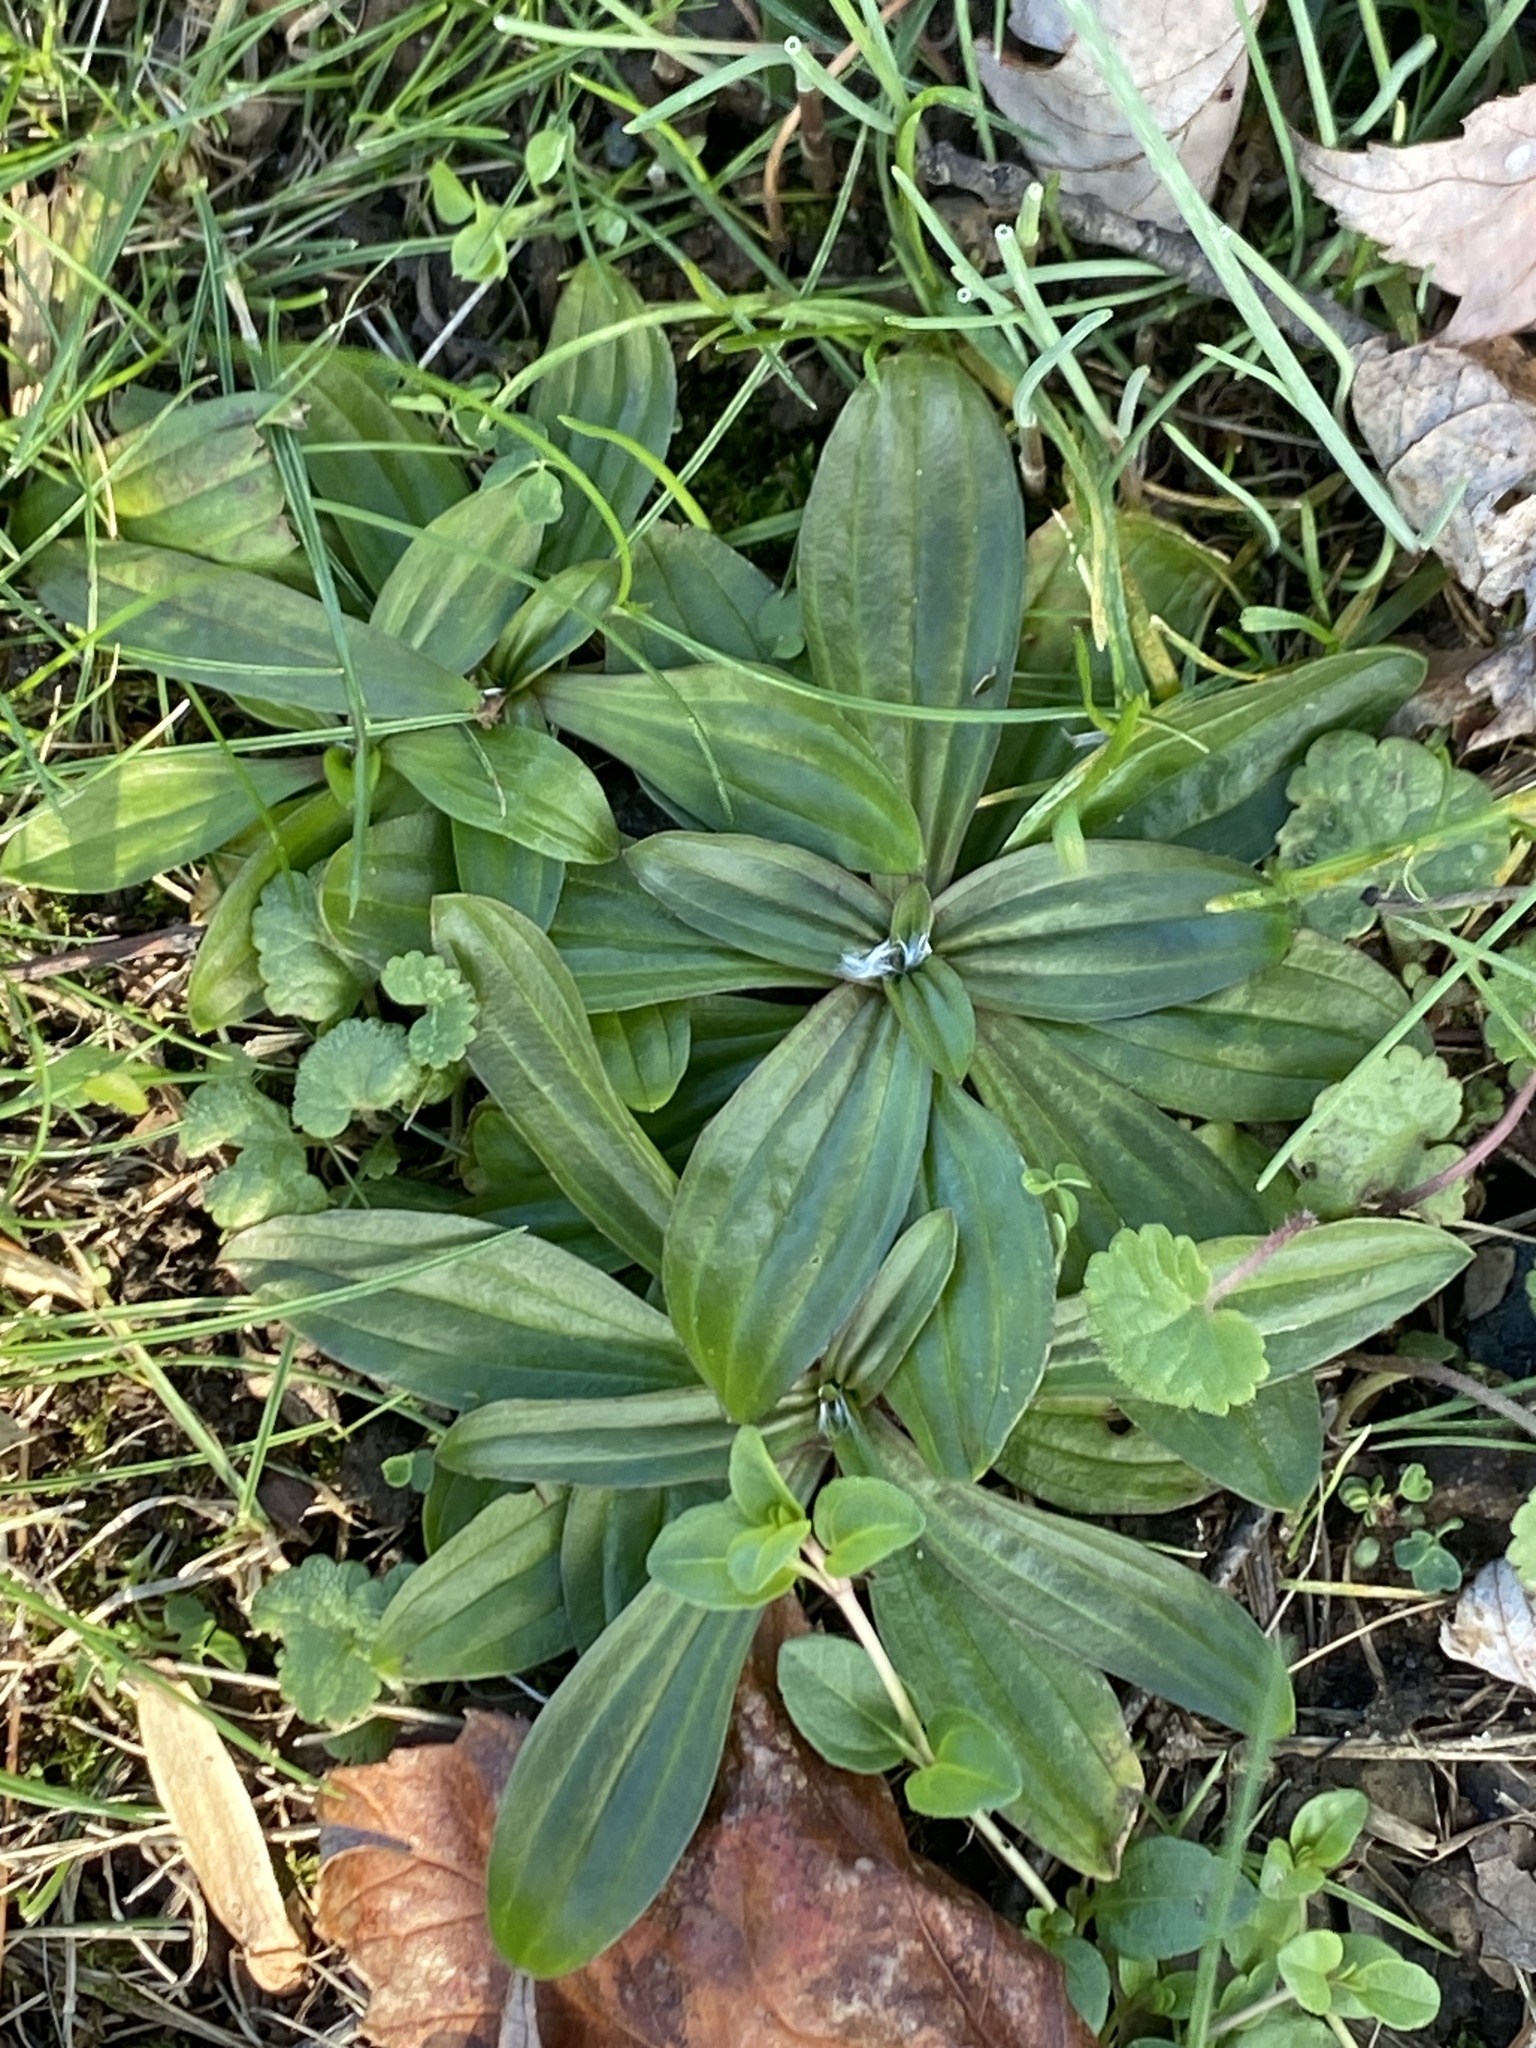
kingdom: Plantae
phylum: Tracheophyta
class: Magnoliopsida
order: Lamiales
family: Plantaginaceae
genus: Plantago
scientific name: Plantago lanceolata
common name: Ribwort plantain
